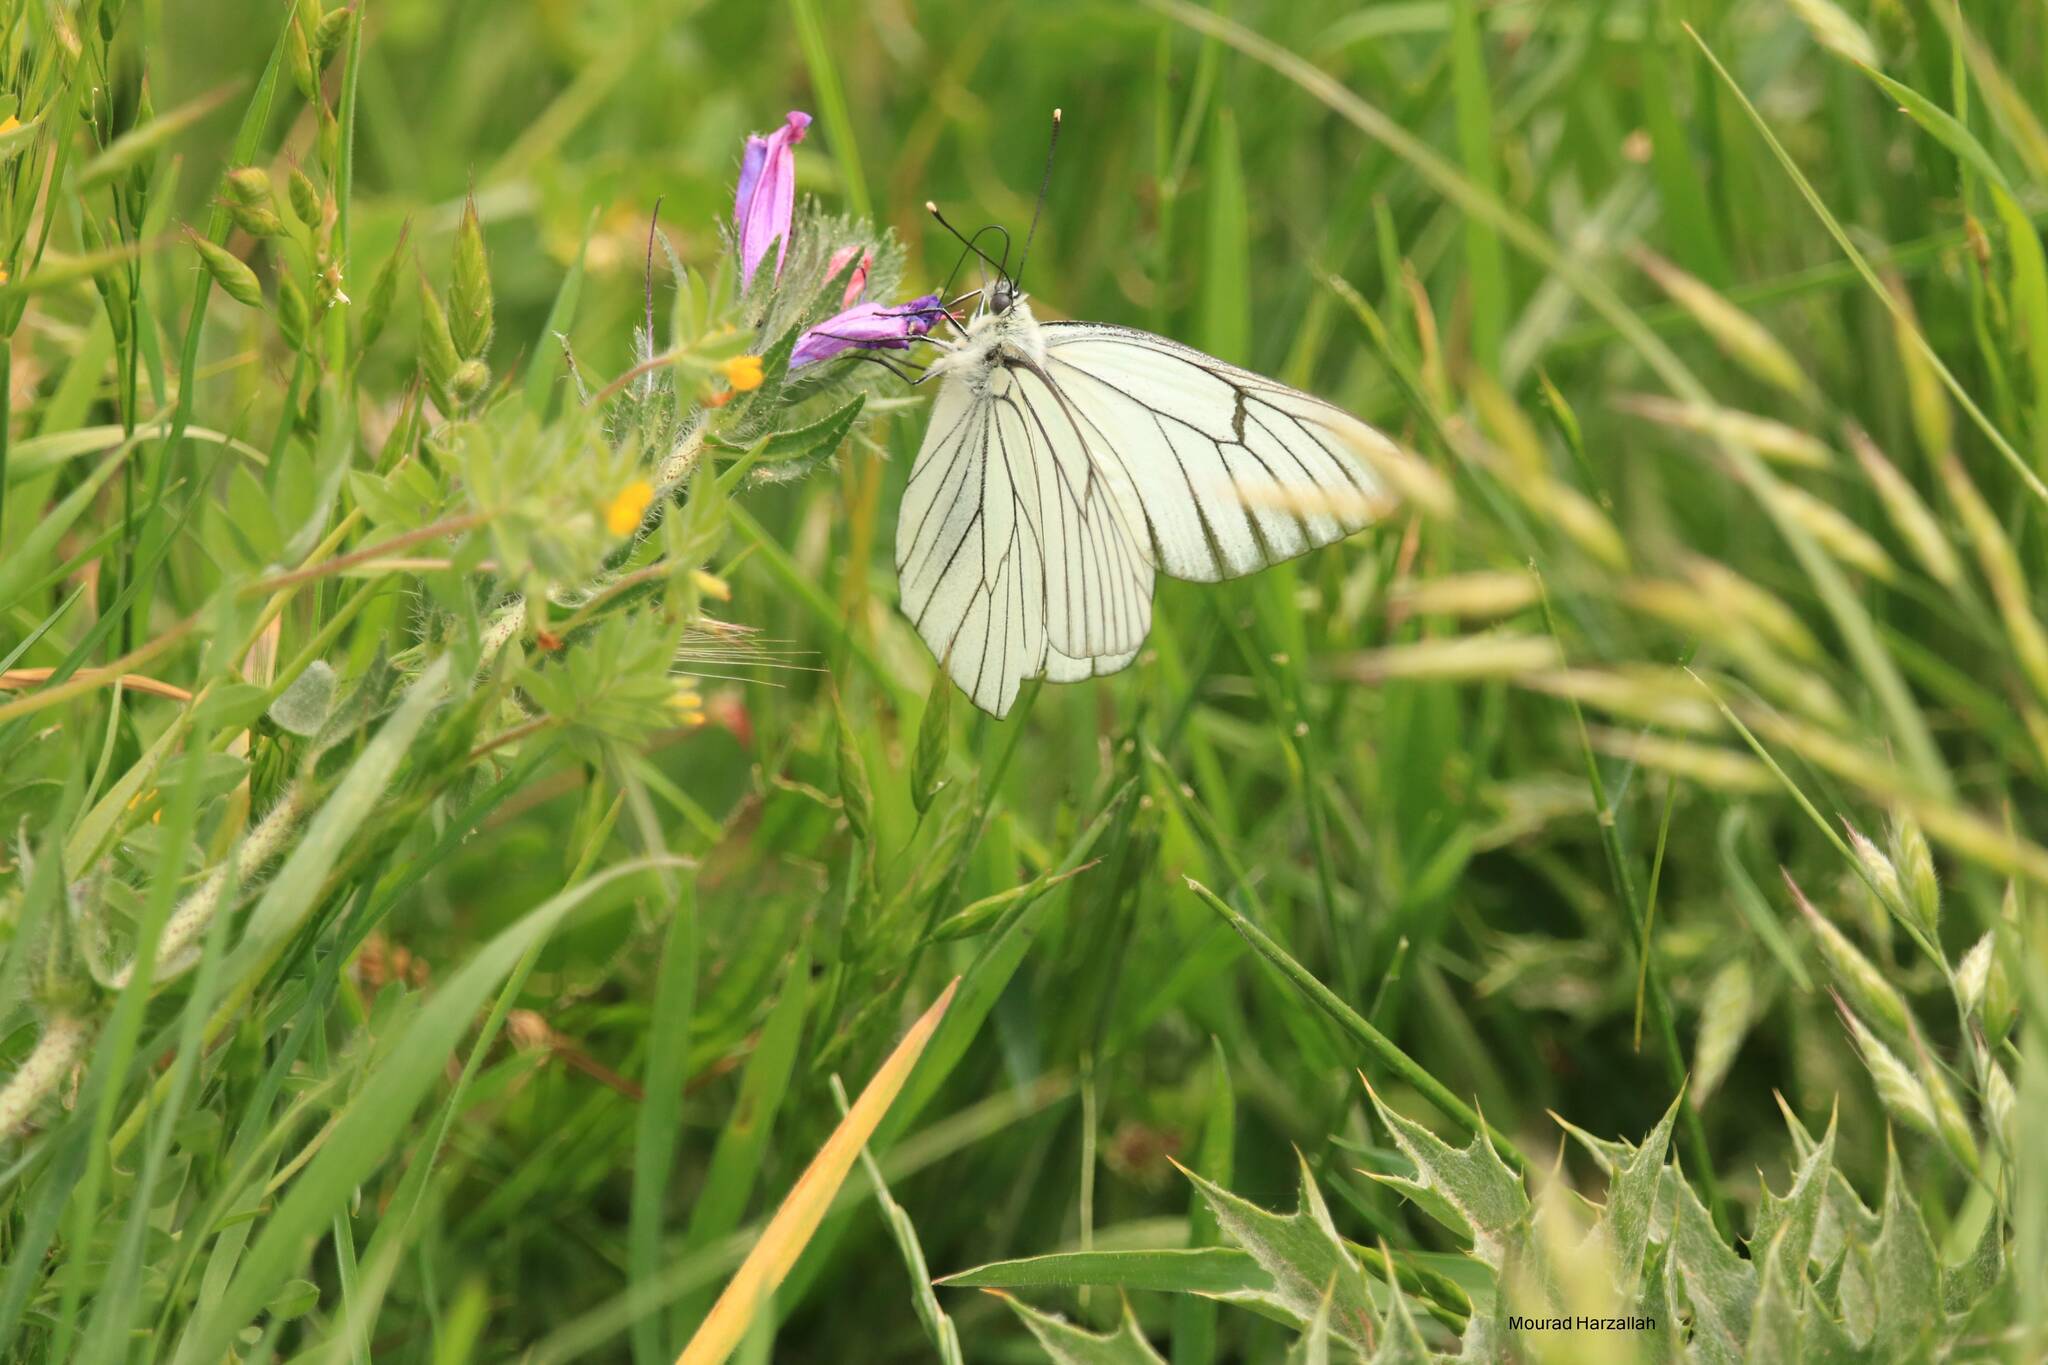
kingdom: Animalia
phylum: Arthropoda
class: Insecta
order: Lepidoptera
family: Pieridae
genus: Aporia
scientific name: Aporia crataegi
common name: Black-veined white
